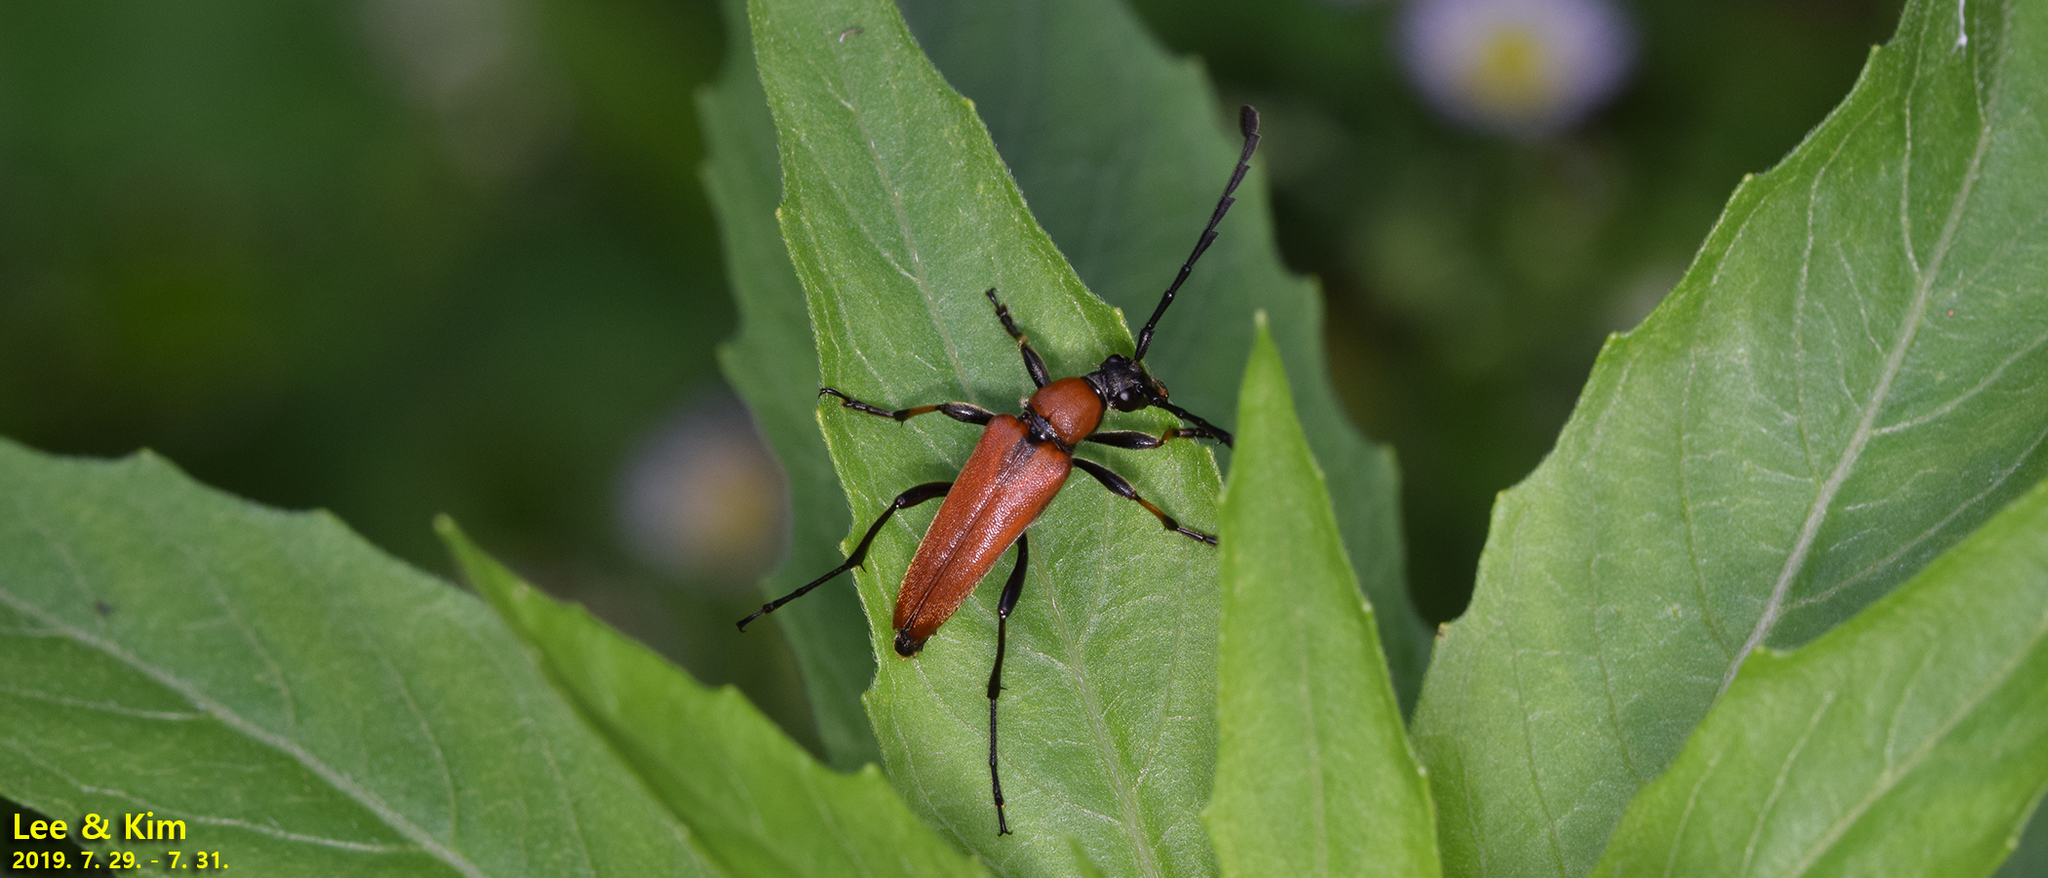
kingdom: Animalia
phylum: Arthropoda
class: Insecta
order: Coleoptera
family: Cerambycidae
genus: Stictoleptura
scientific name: Stictoleptura dichroa
